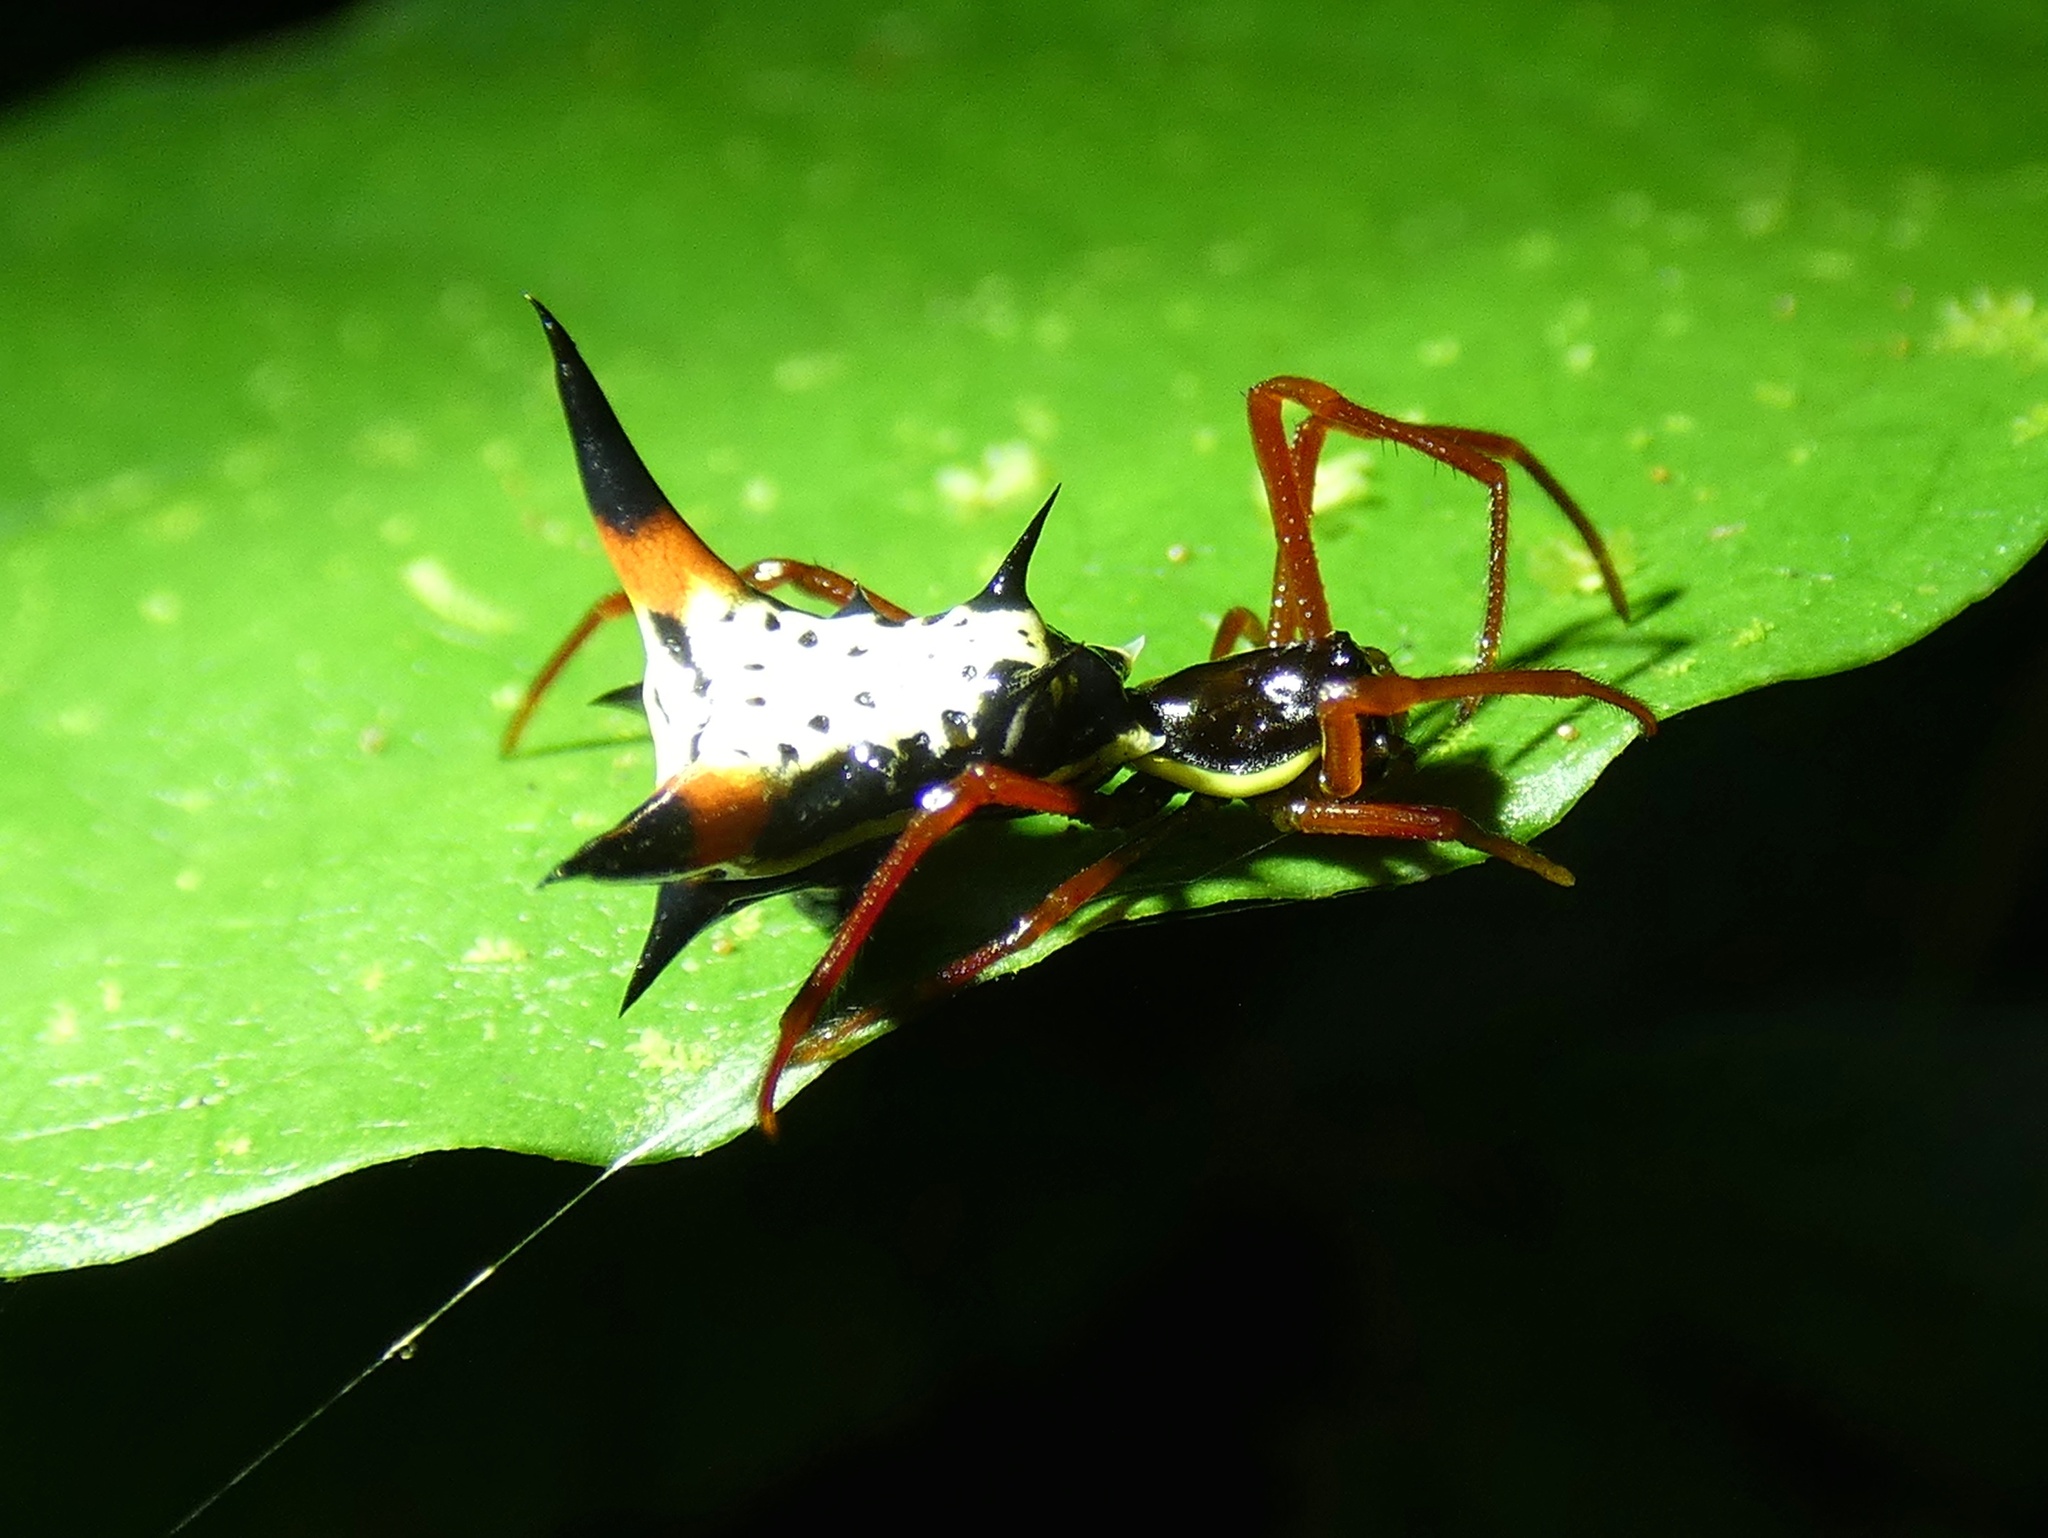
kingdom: Animalia
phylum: Arthropoda
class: Arachnida
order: Araneae
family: Araneidae
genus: Micrathena
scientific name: Micrathena schreibersi
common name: Orb weavers
